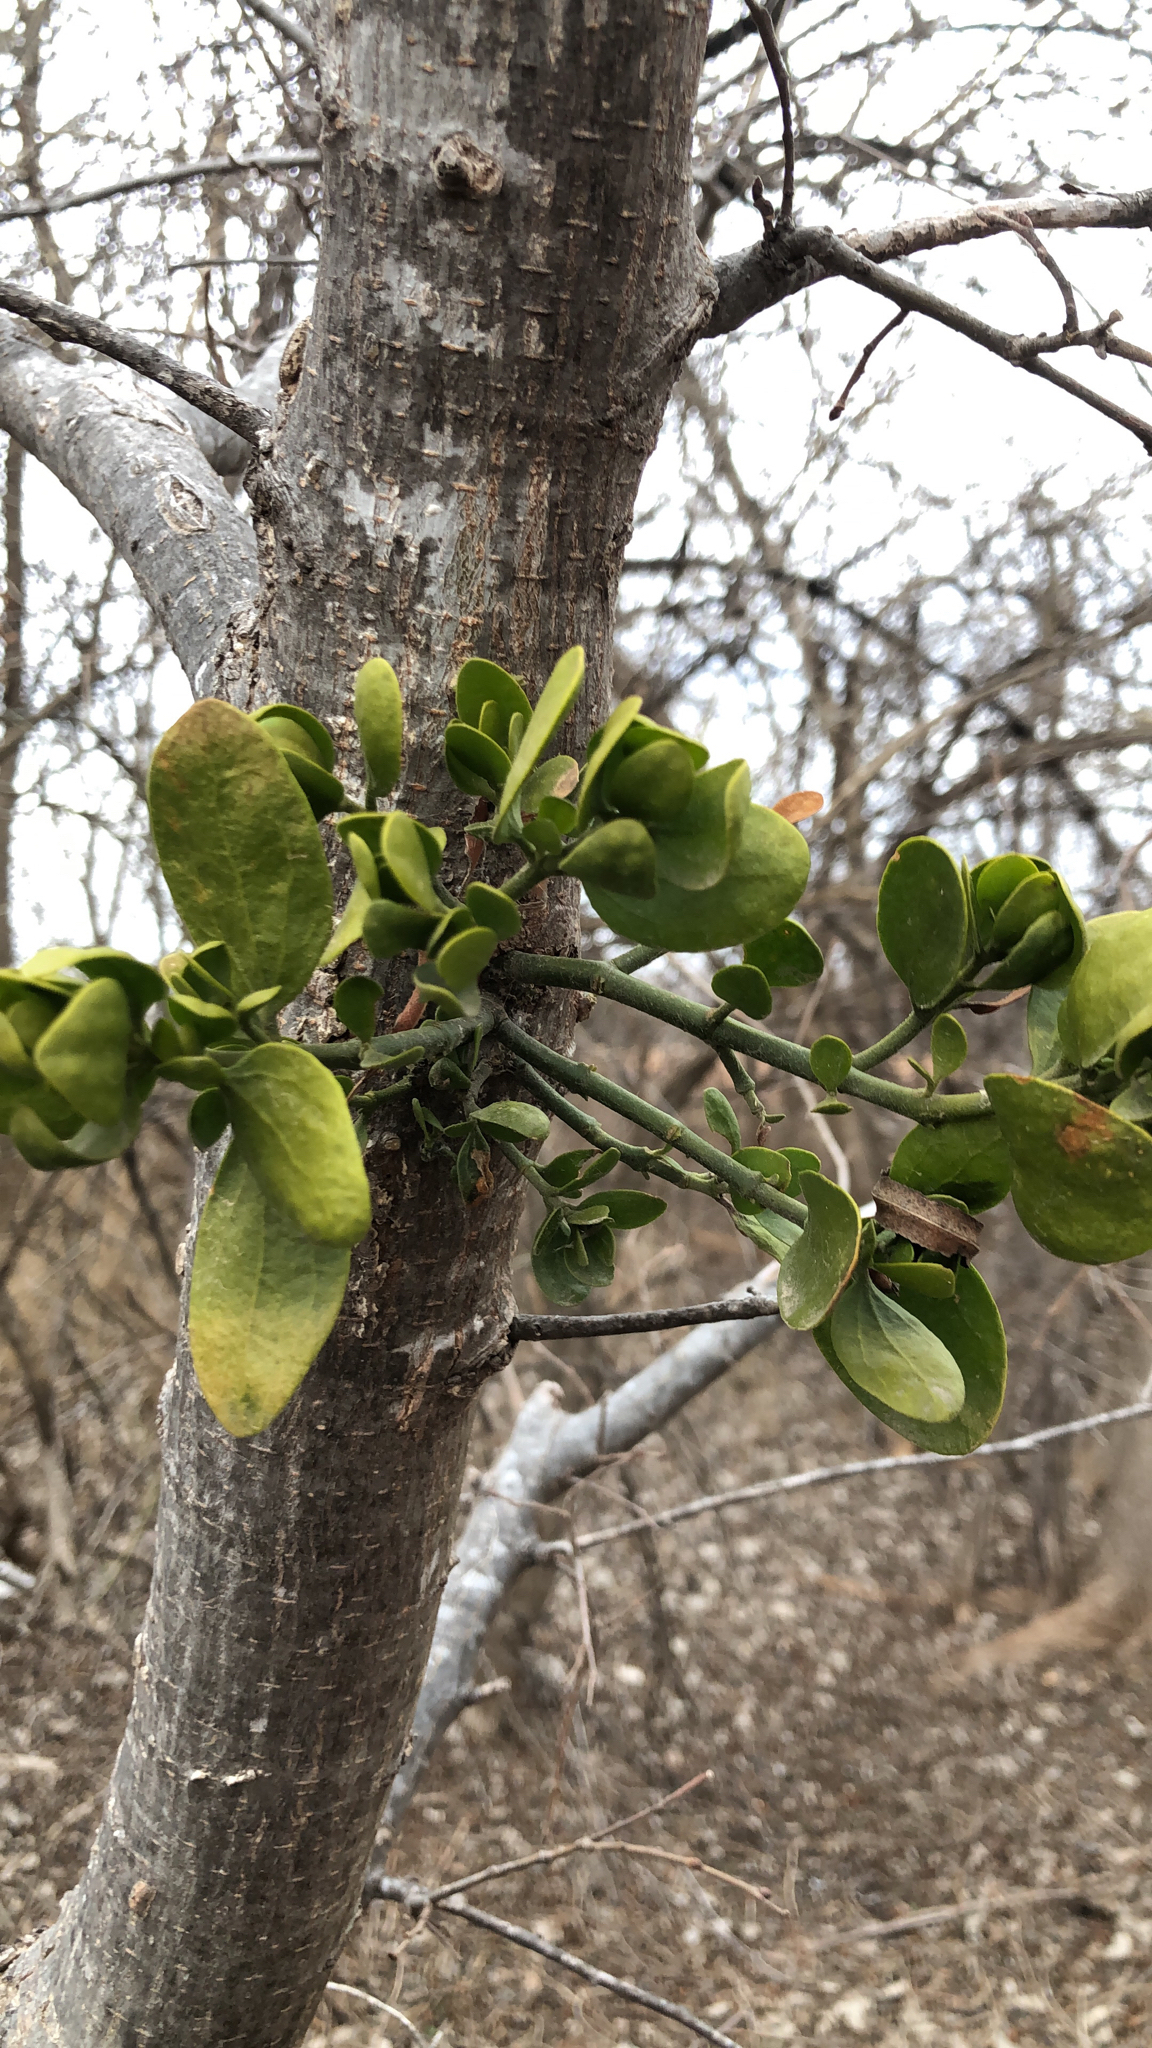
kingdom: Plantae
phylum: Tracheophyta
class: Magnoliopsida
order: Santalales
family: Viscaceae
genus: Phoradendron
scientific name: Phoradendron leucarpum
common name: Pacific mistletoe
